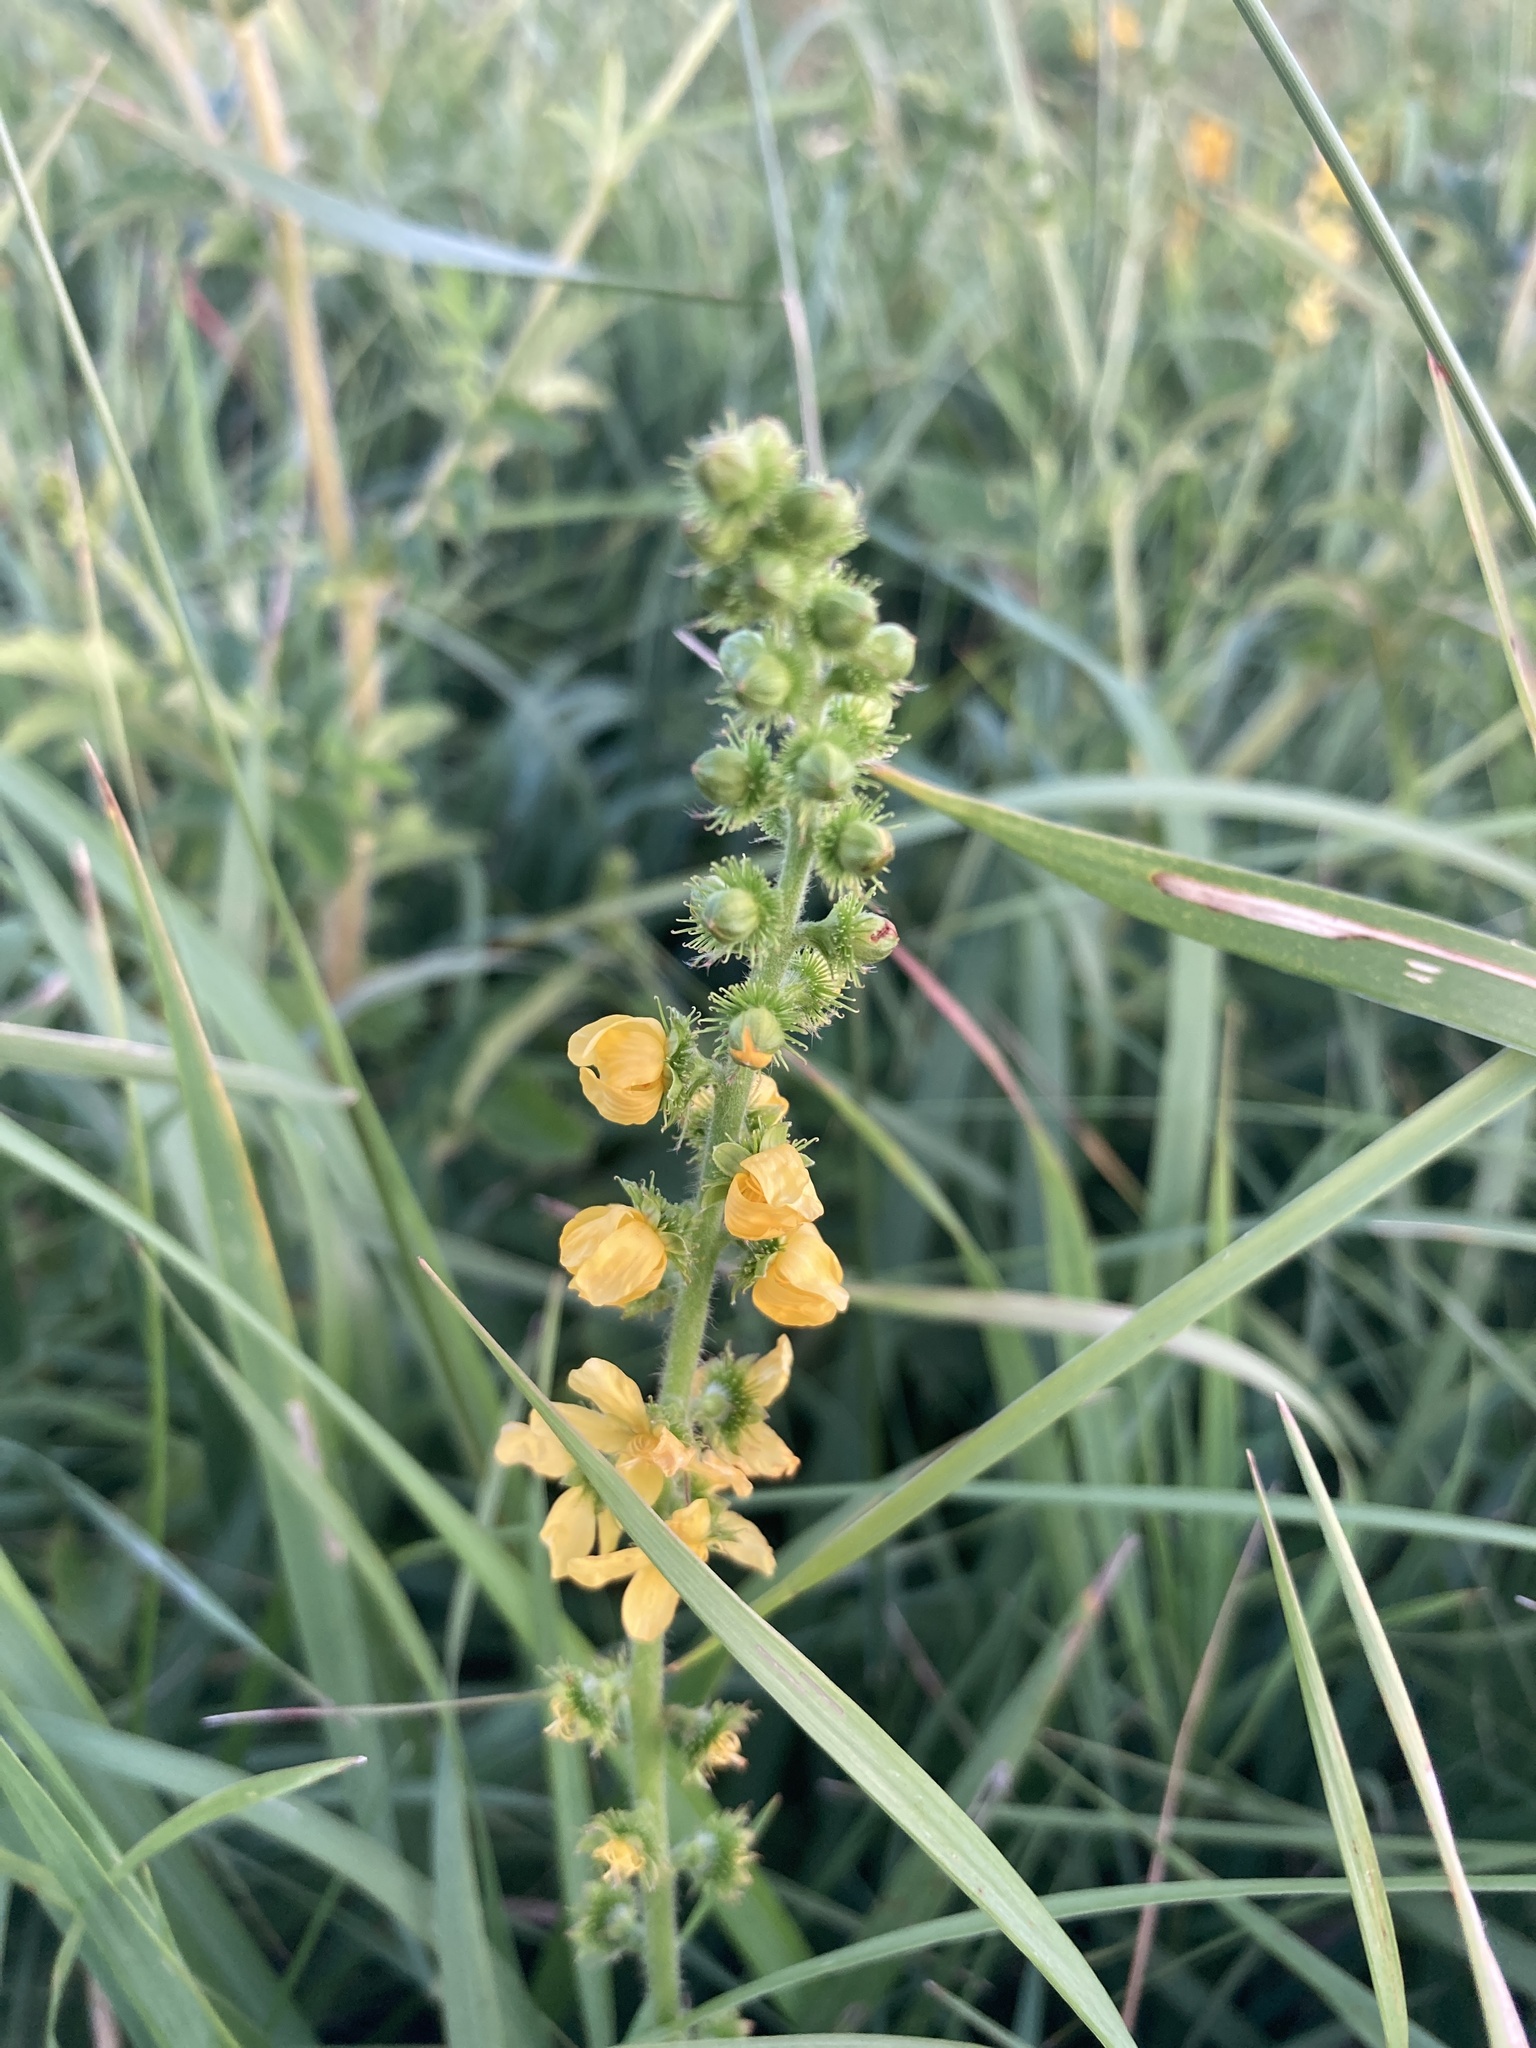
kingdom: Plantae
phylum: Tracheophyta
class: Magnoliopsida
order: Rosales
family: Rosaceae
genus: Agrimonia
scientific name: Agrimonia eupatoria
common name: Agrimony
